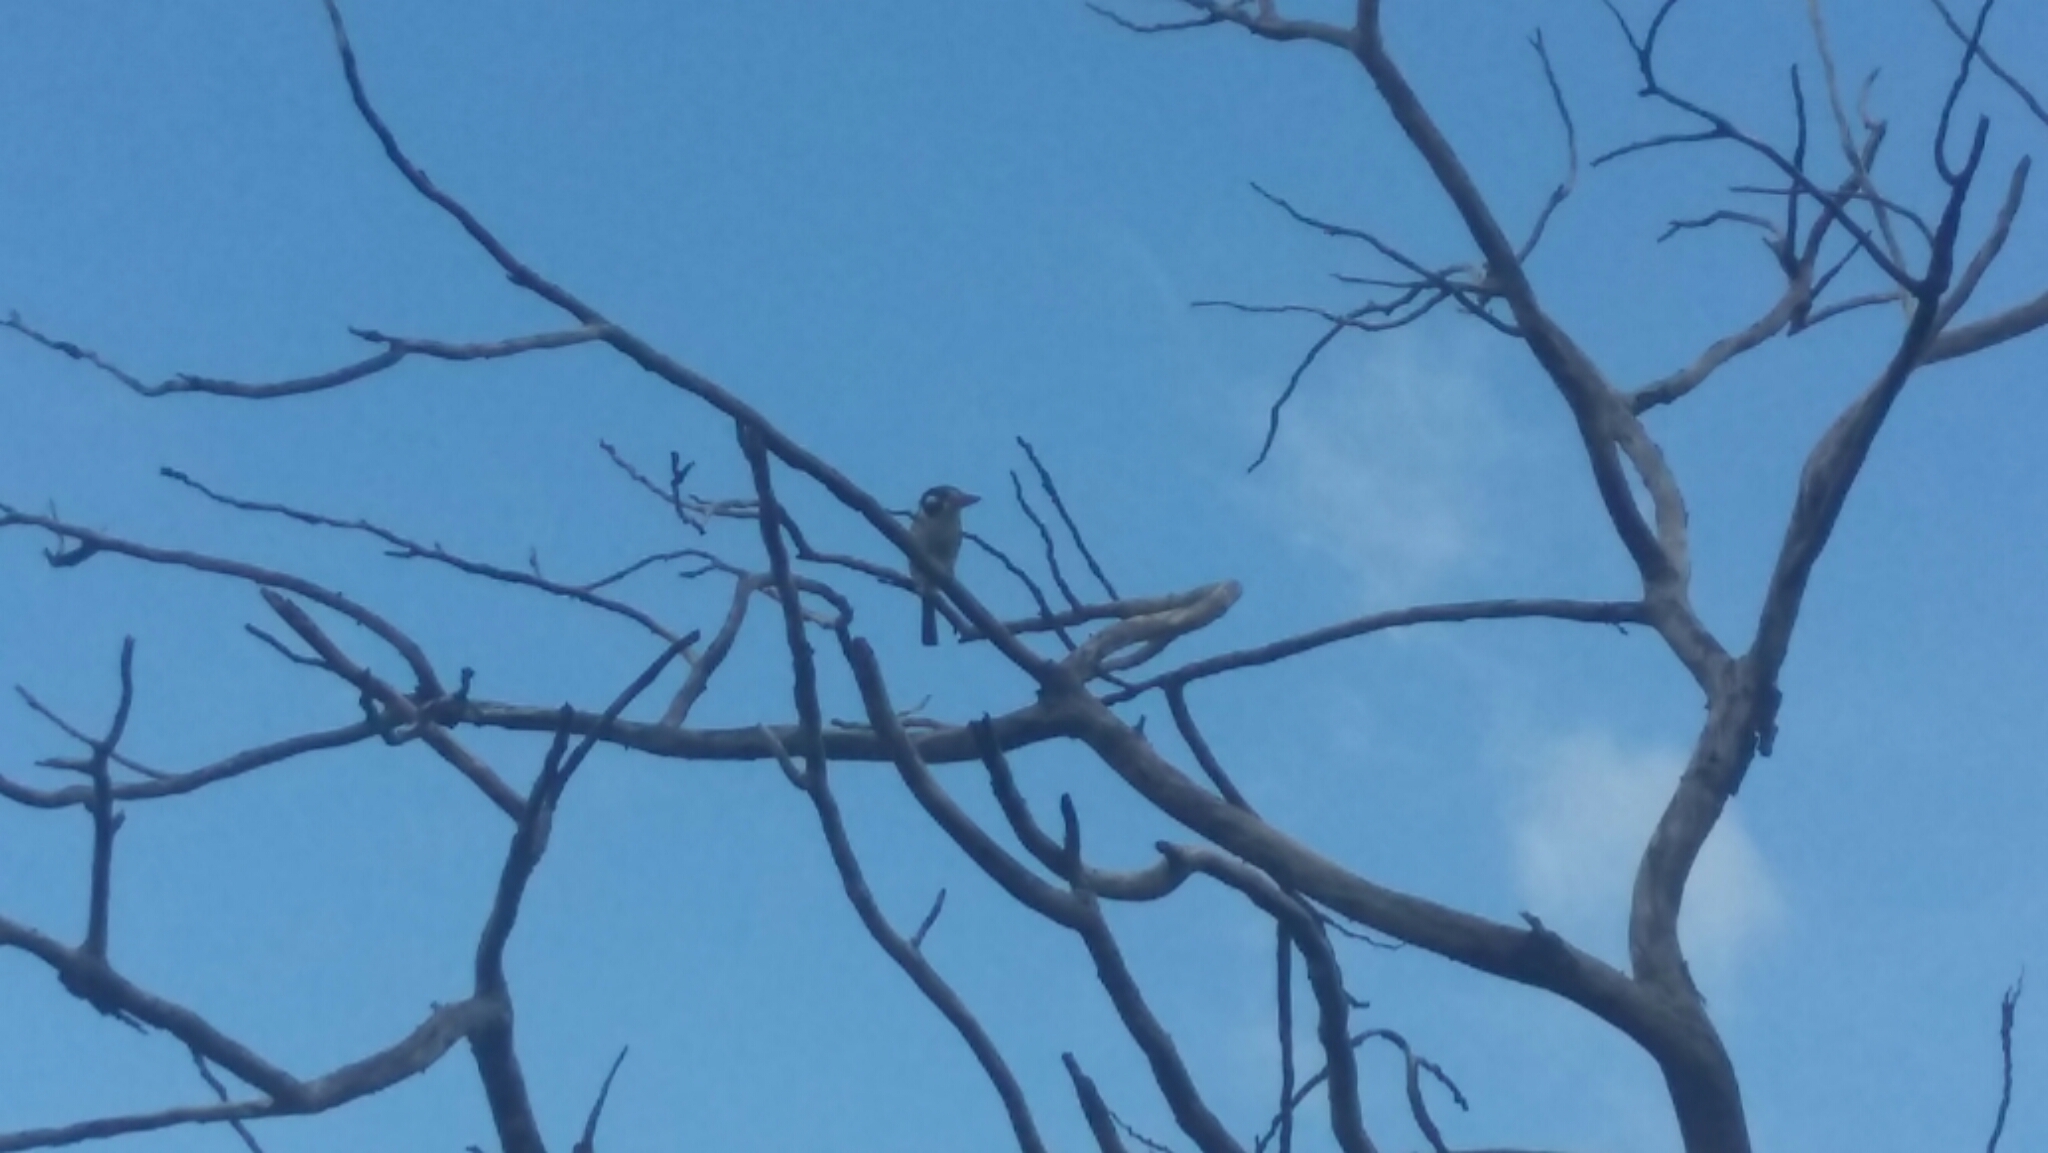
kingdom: Animalia
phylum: Chordata
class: Aves
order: Piciformes
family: Bucconidae
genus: Nystalus
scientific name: Nystalus chacuru
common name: White-eared puffbird
